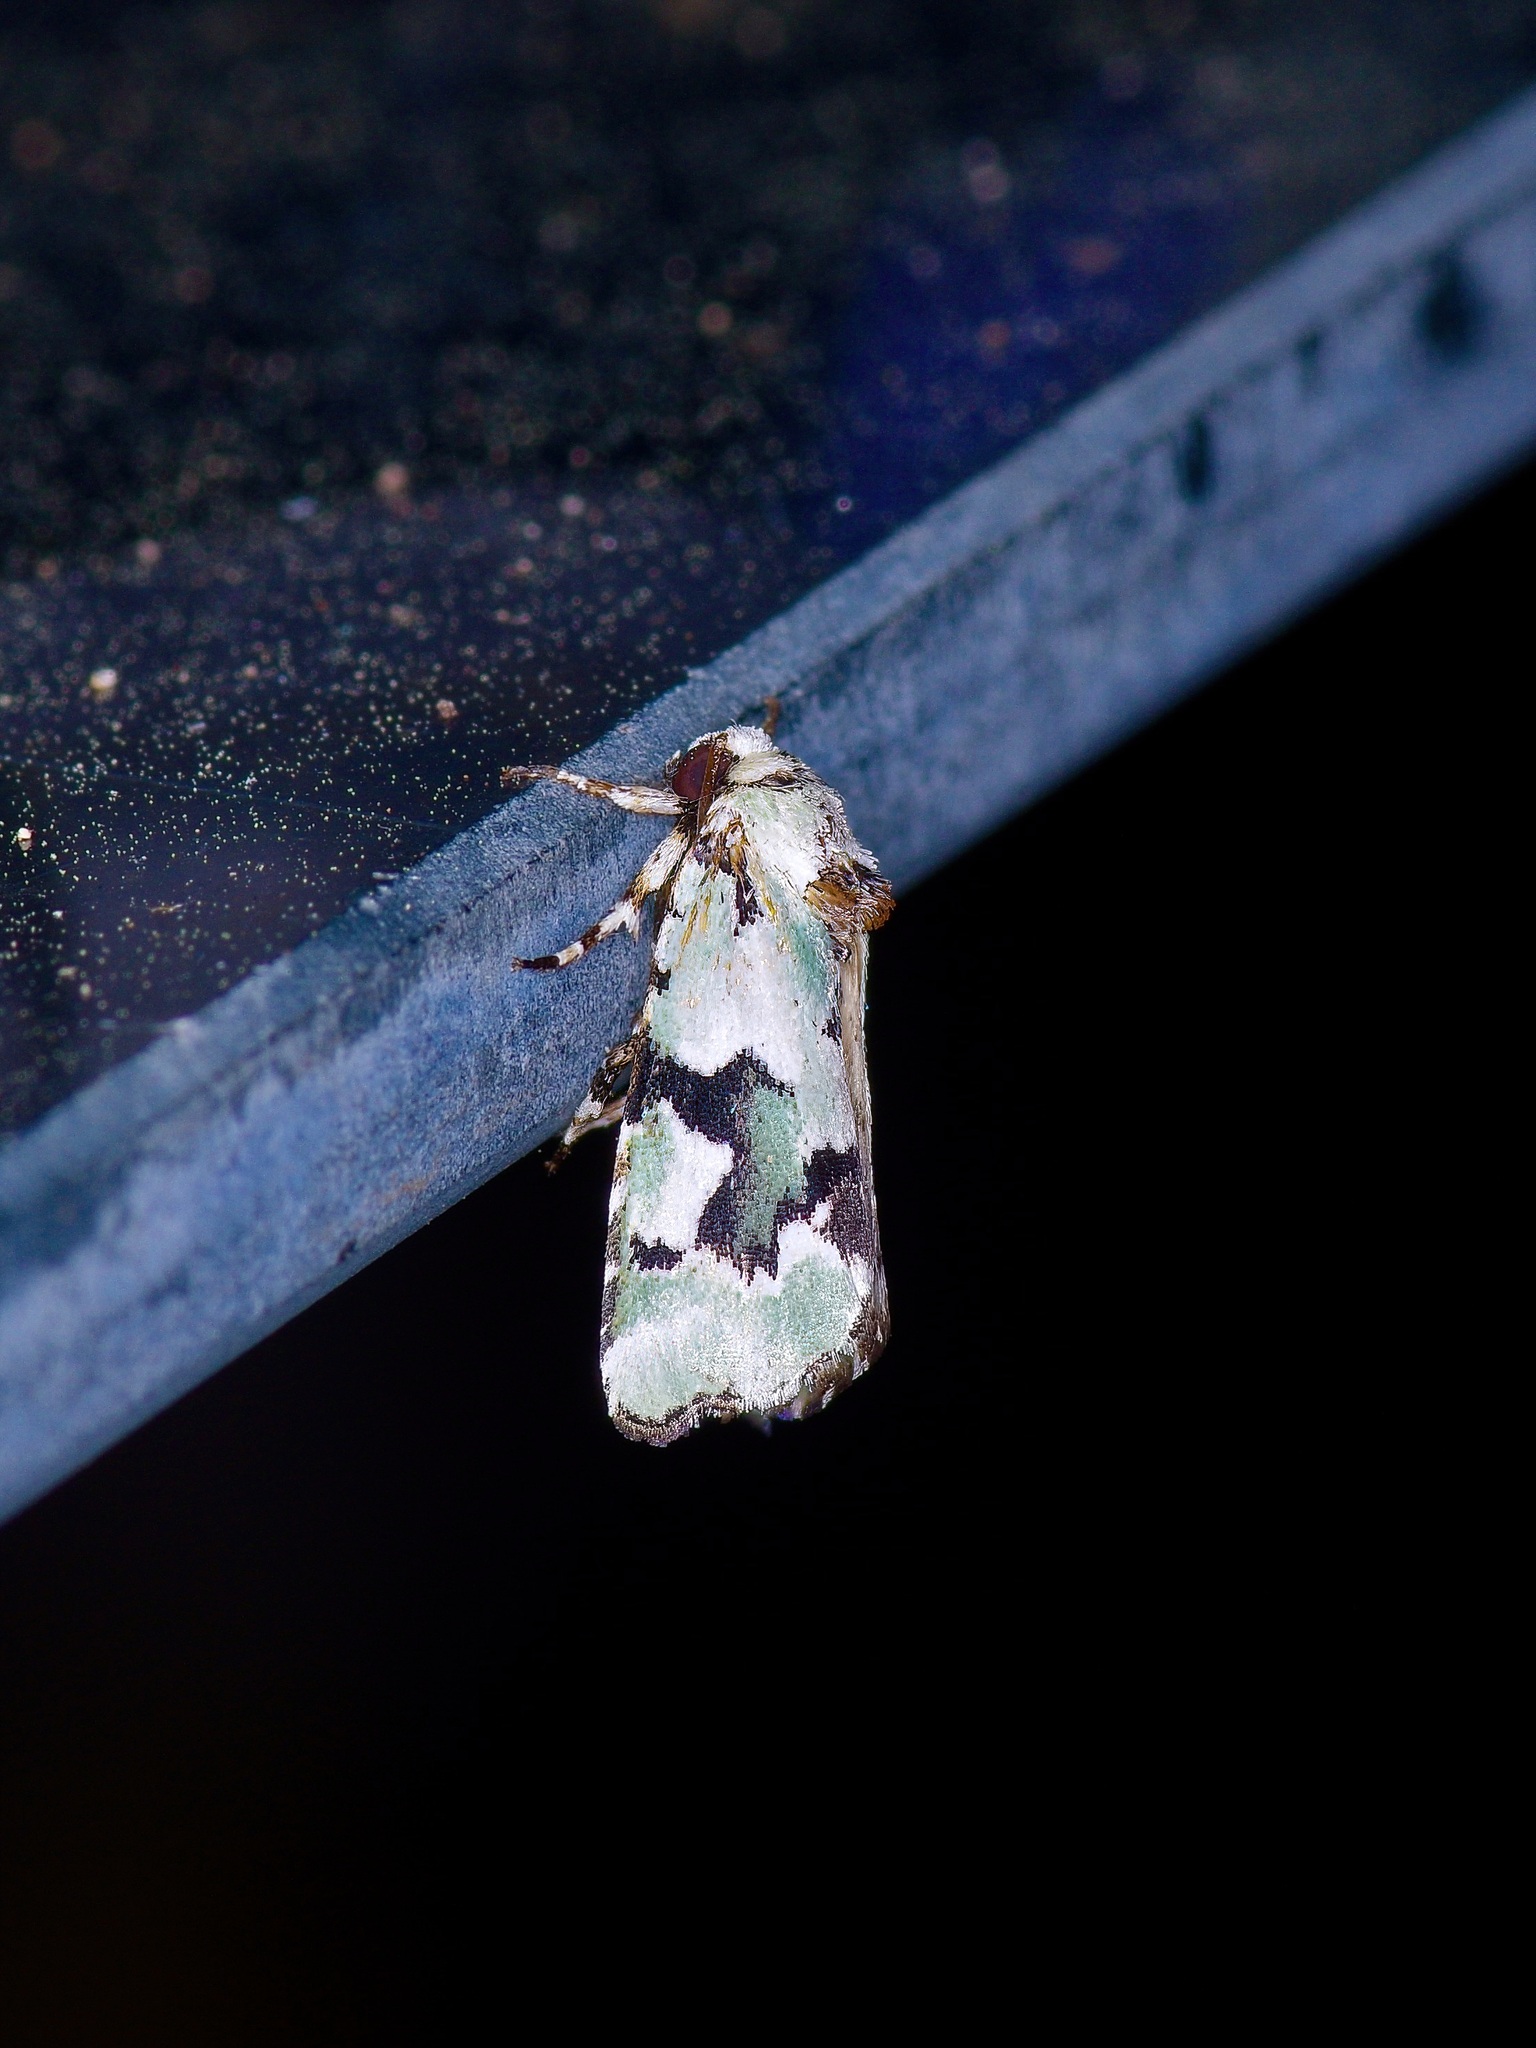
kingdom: Animalia
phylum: Arthropoda
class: Insecta
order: Lepidoptera
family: Noctuidae
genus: Emarginea
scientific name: Emarginea percara
